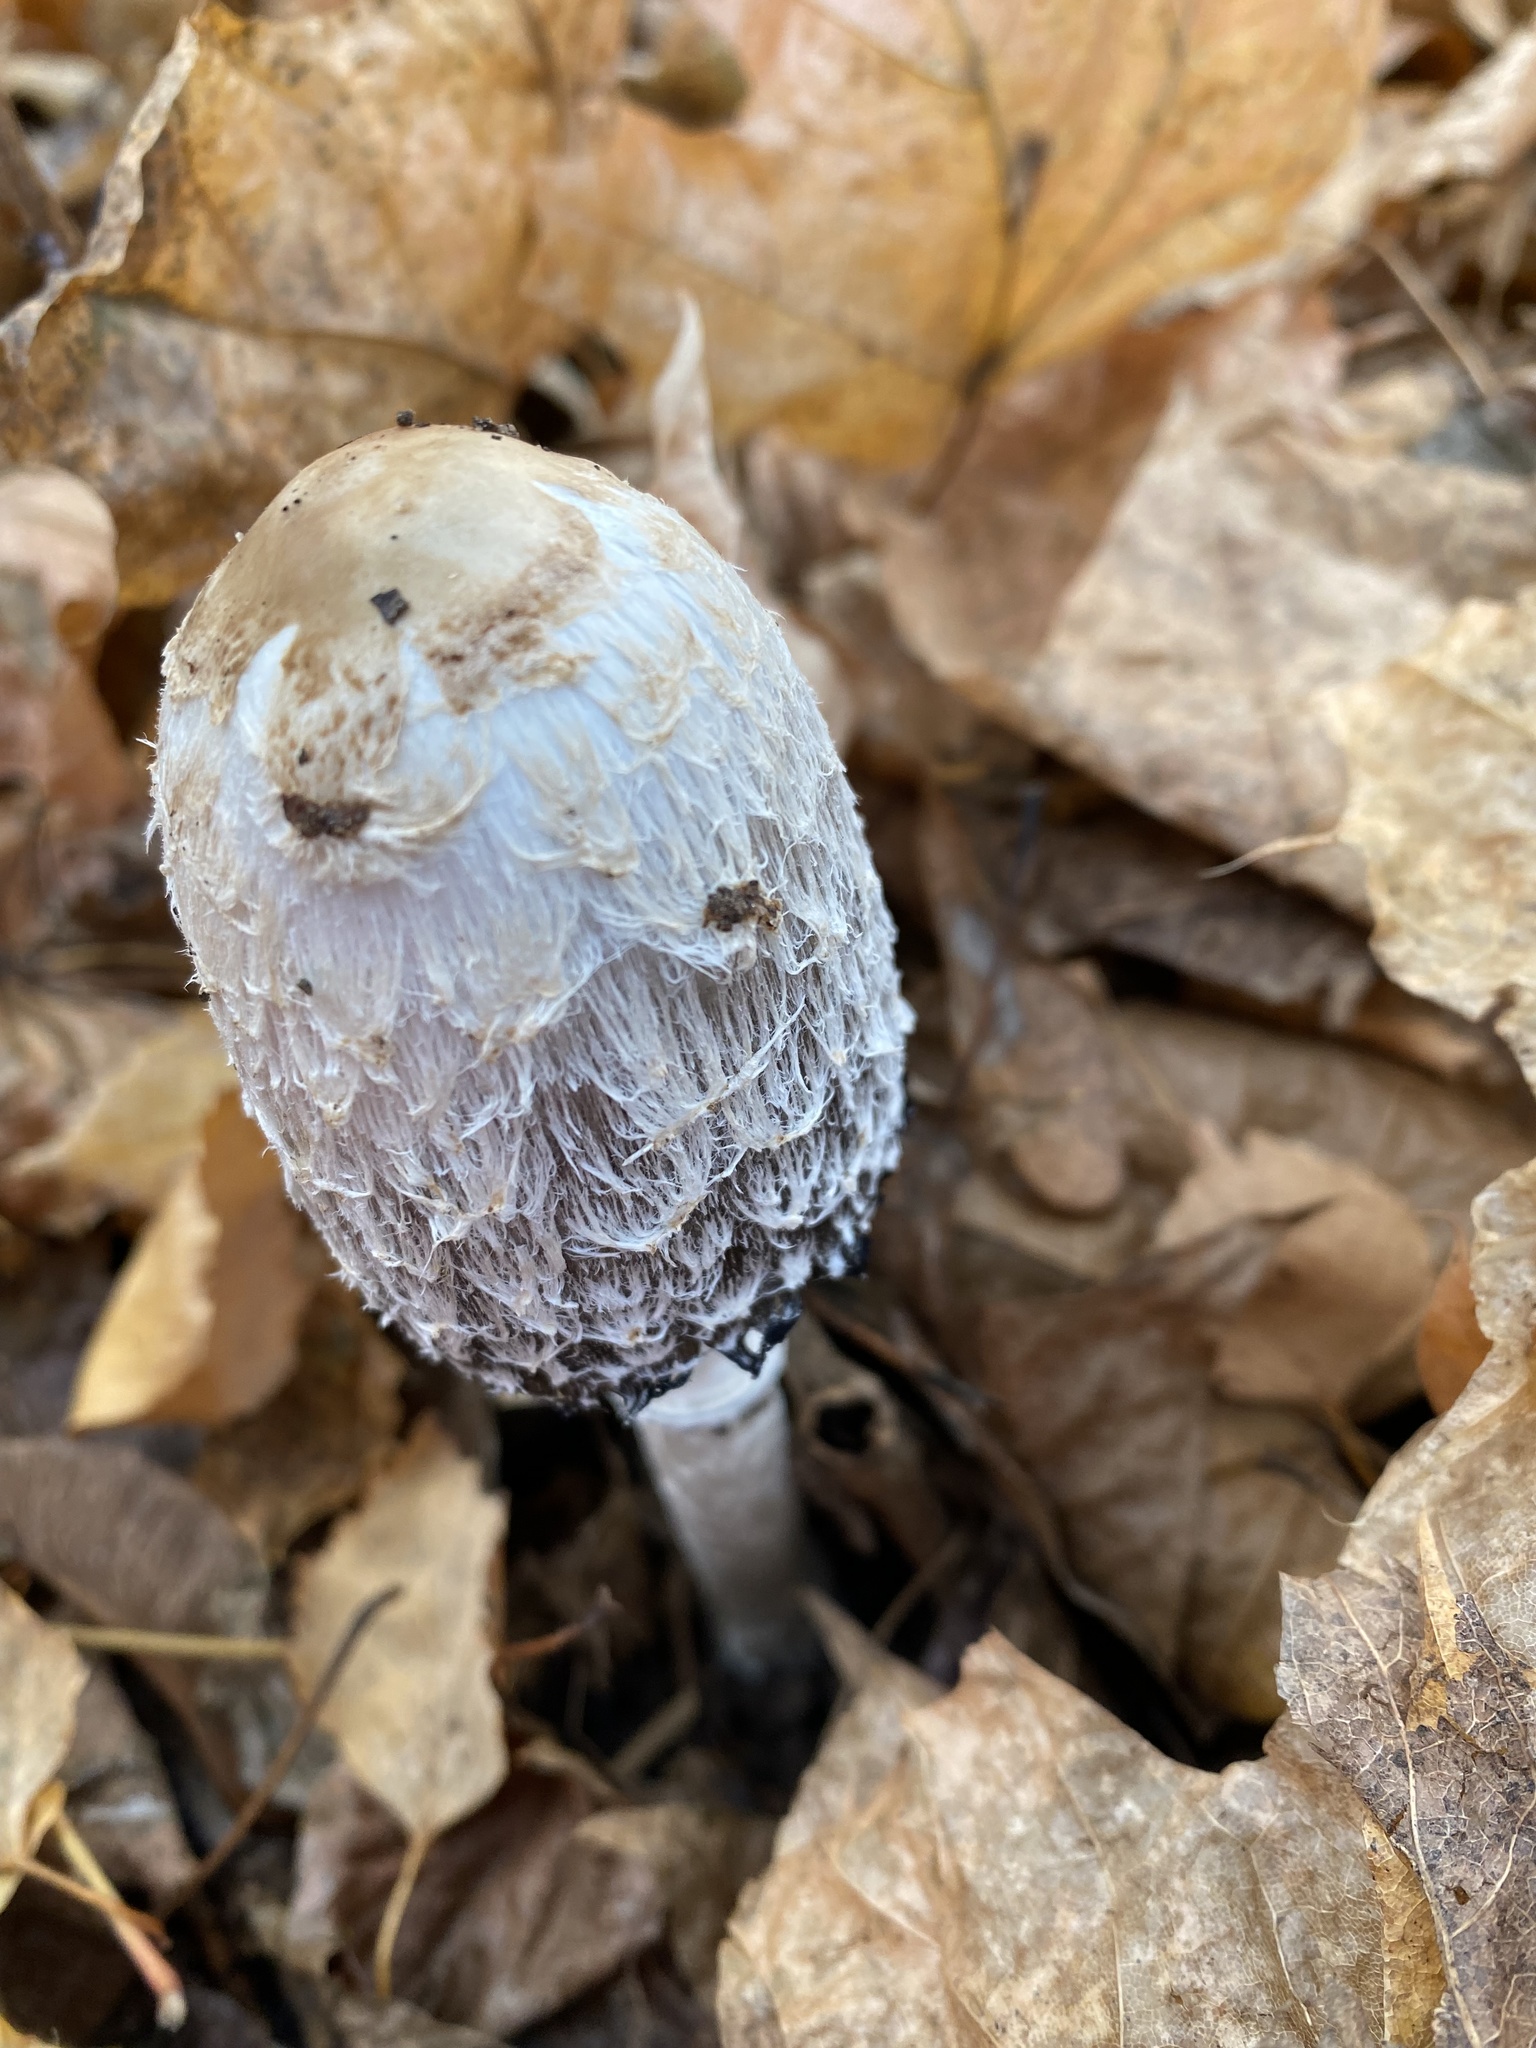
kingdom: Fungi
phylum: Basidiomycota
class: Agaricomycetes
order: Agaricales
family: Agaricaceae
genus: Coprinus
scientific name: Coprinus comatus
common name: Lawyer's wig
